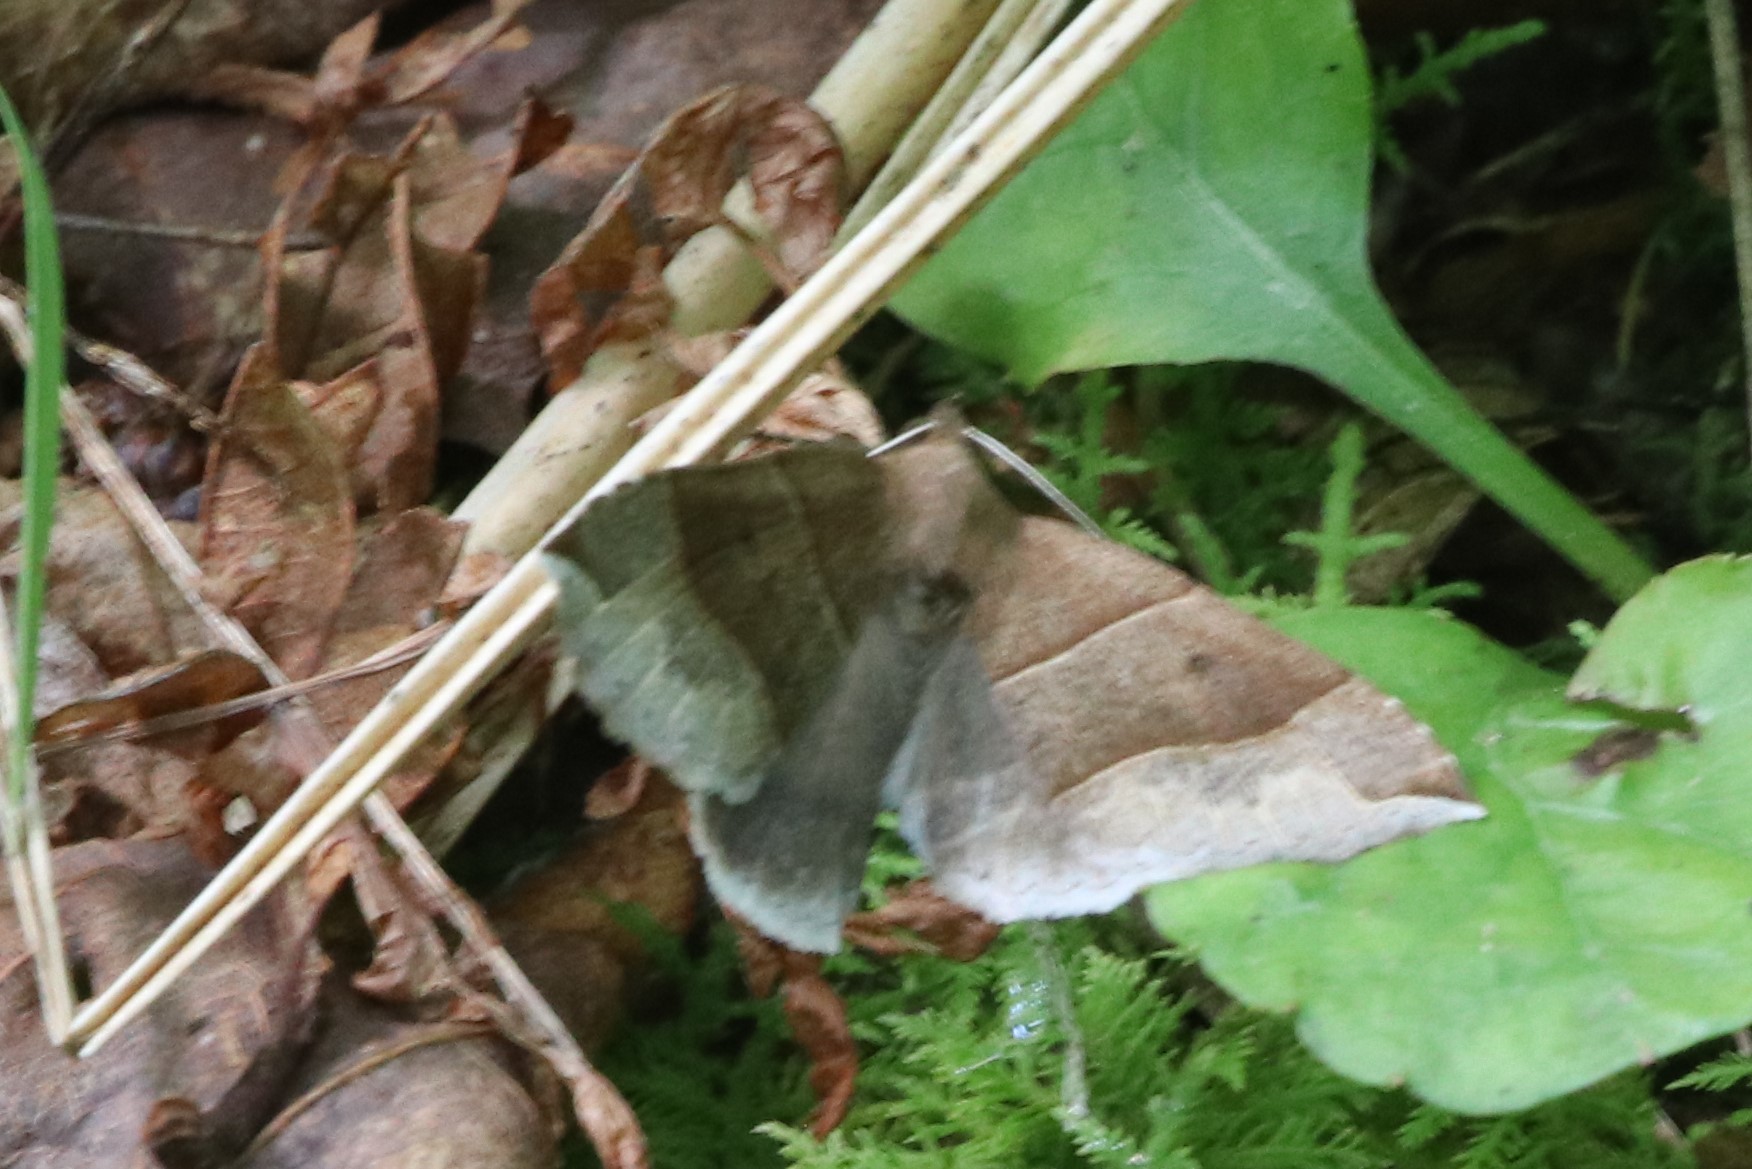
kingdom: Animalia
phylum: Arthropoda
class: Insecta
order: Lepidoptera
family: Erebidae
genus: Parallelia
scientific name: Parallelia bistriaris
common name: Maple looper moth
